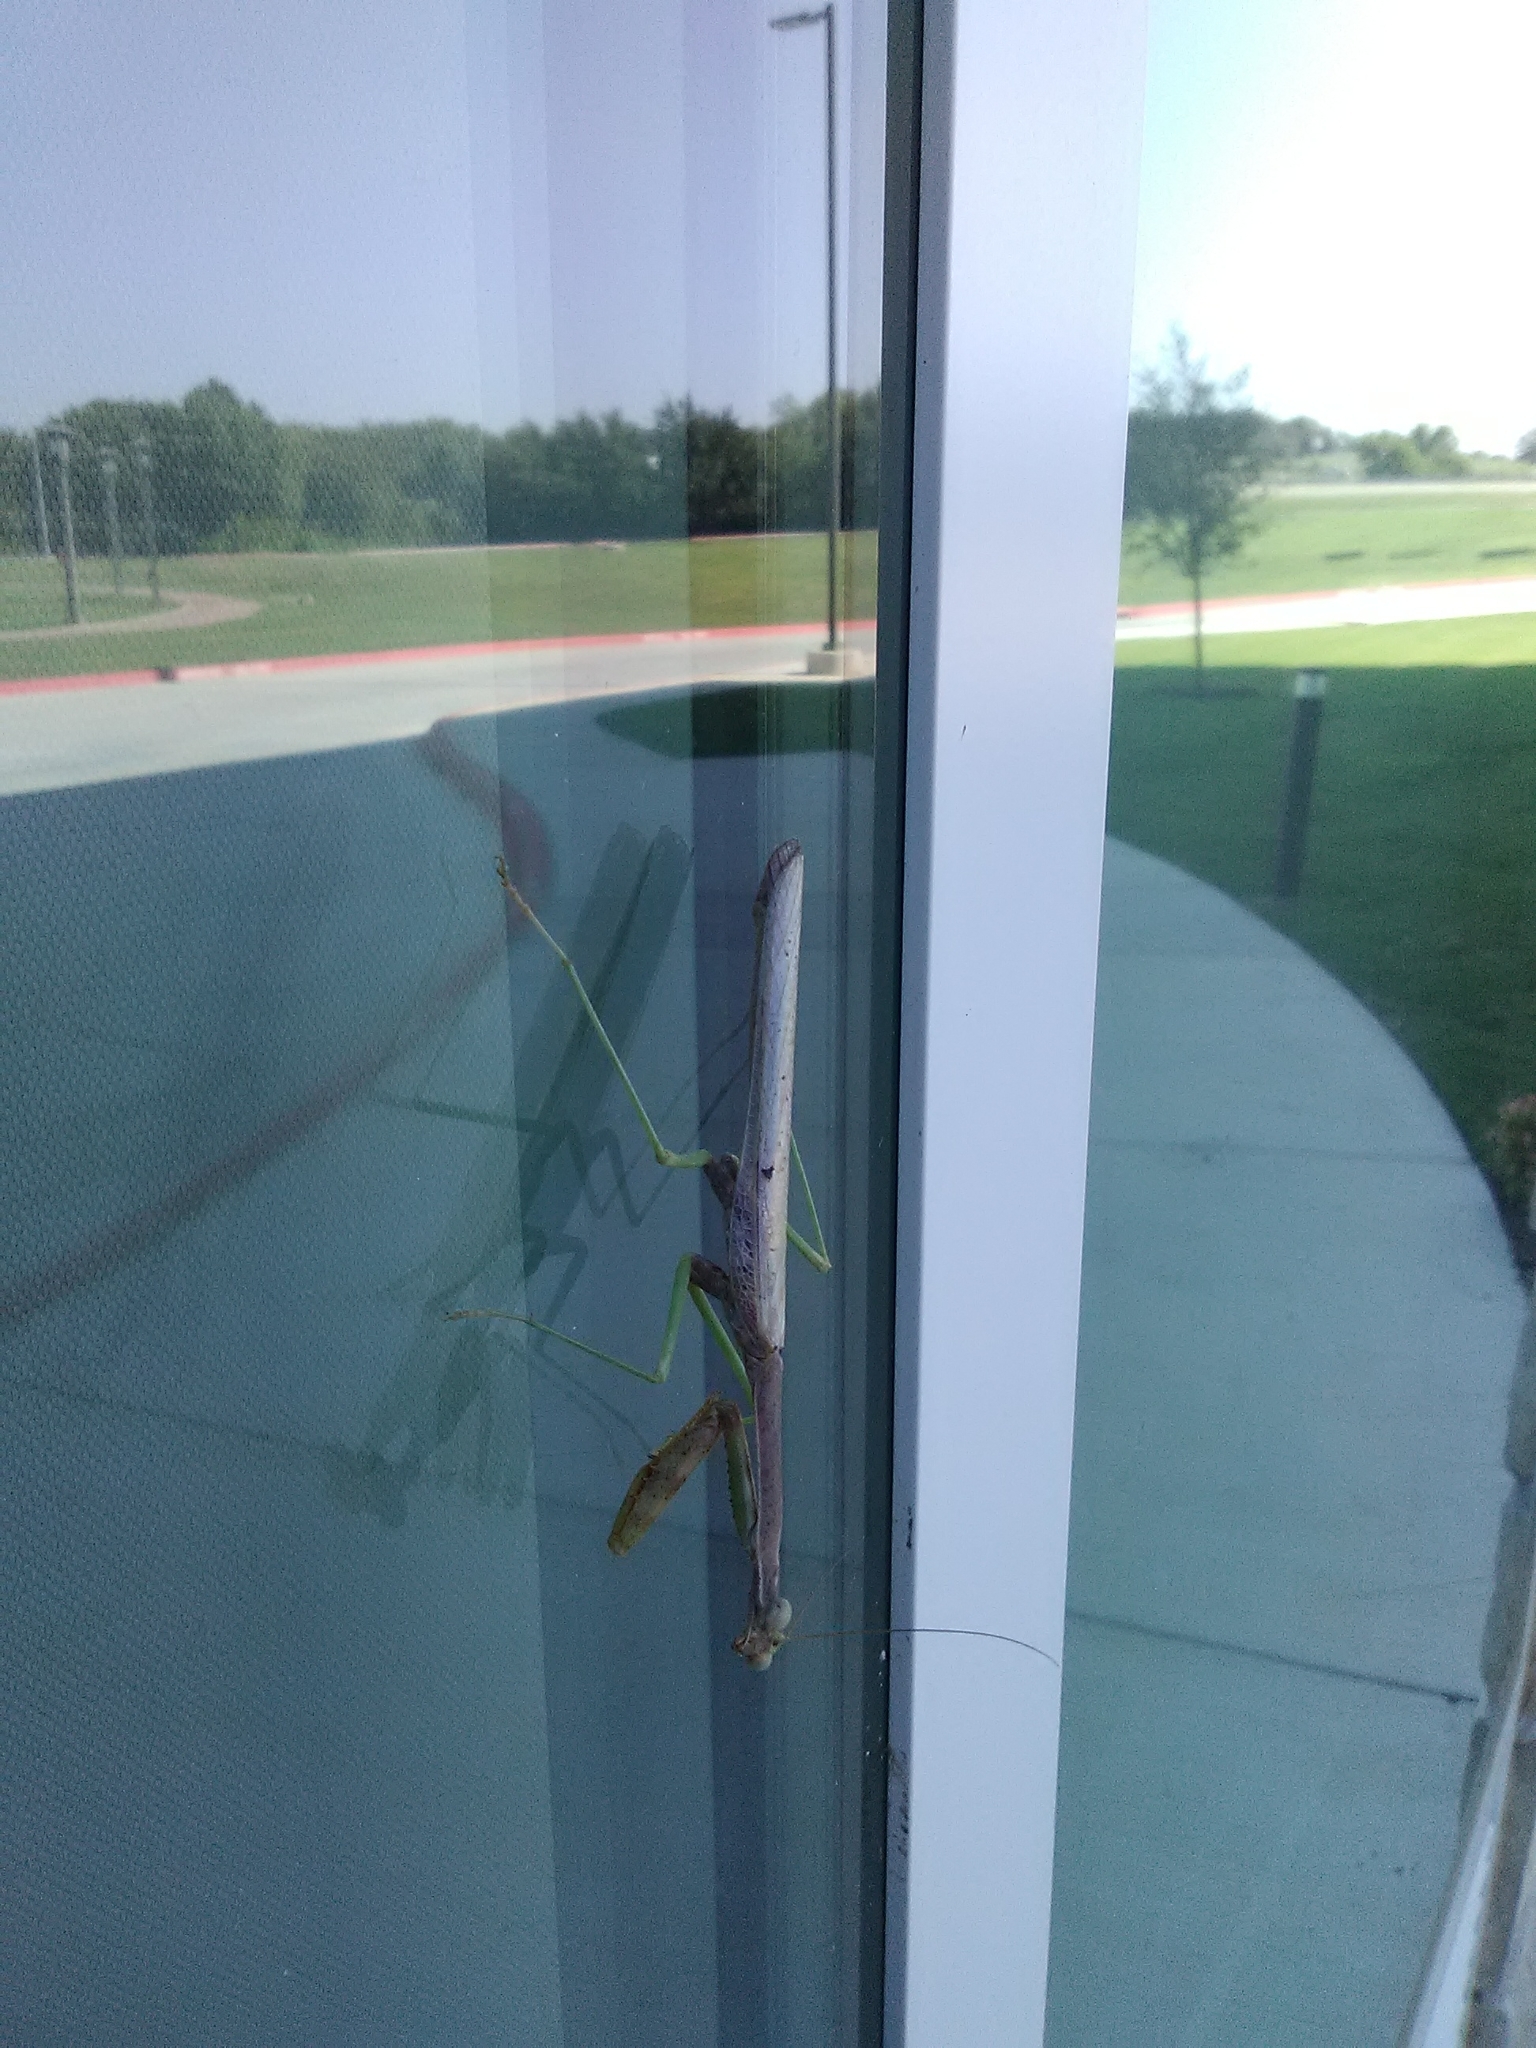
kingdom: Animalia
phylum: Arthropoda
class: Insecta
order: Mantodea
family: Mantidae
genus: Stagmomantis
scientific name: Stagmomantis carolina
